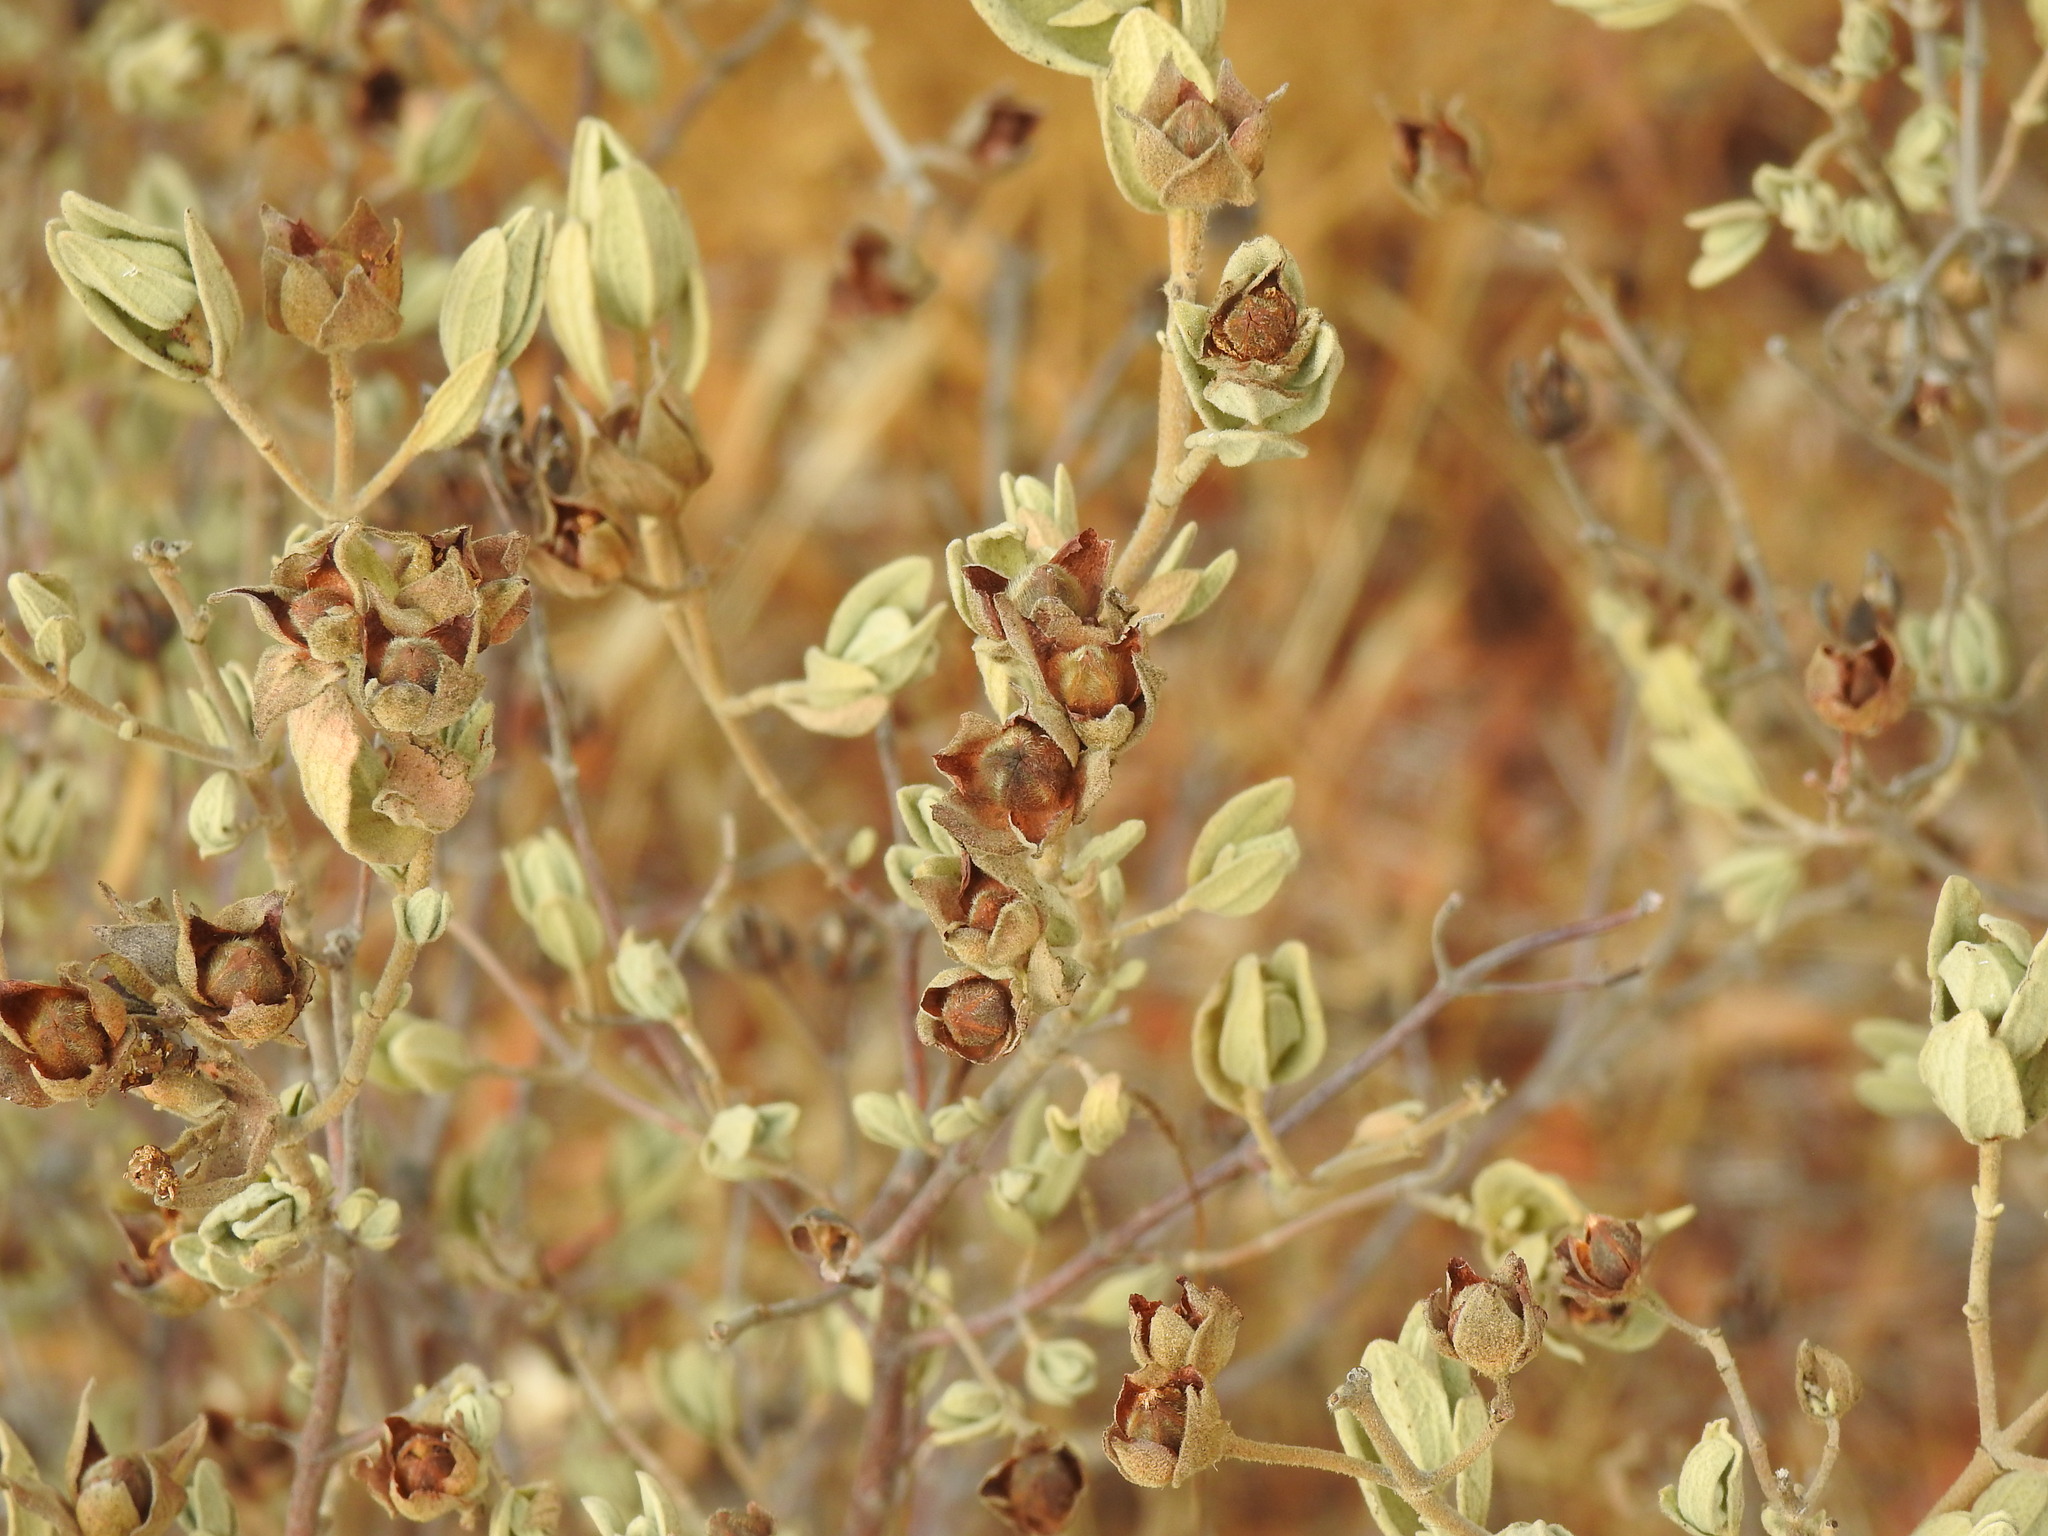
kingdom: Plantae
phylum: Tracheophyta
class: Magnoliopsida
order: Malvales
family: Cistaceae
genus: Cistus
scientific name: Cistus albidus
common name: White-leaf rock-rose
